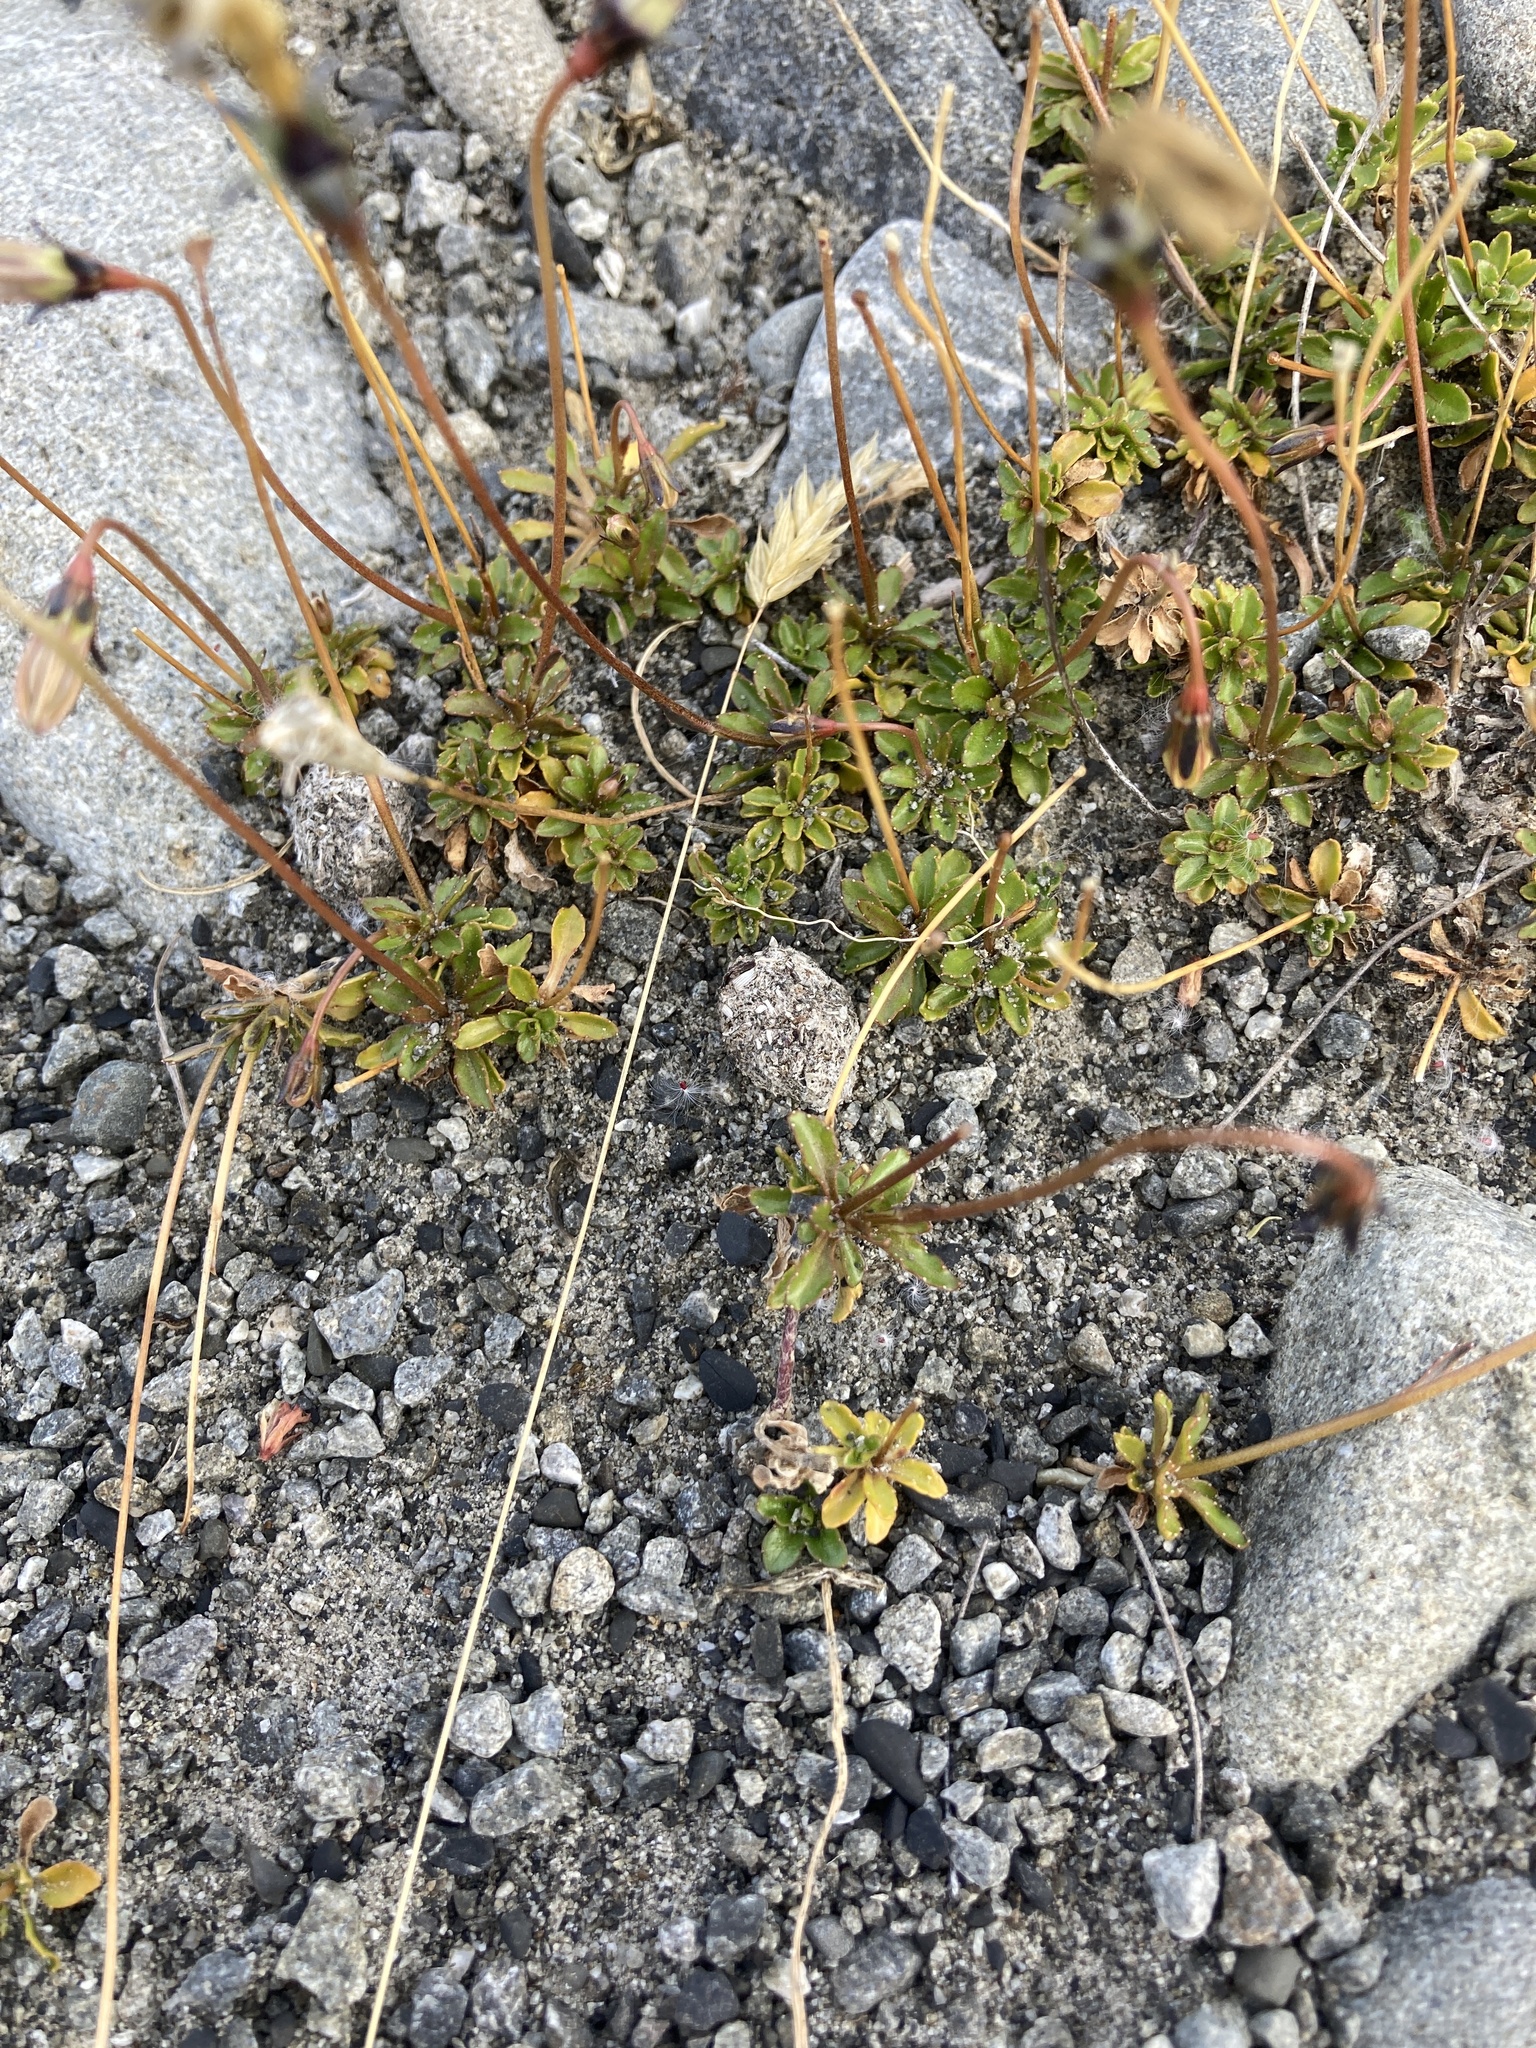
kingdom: Plantae
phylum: Tracheophyta
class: Magnoliopsida
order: Asterales
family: Campanulaceae
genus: Wahlenbergia
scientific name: Wahlenbergia albomarginata
